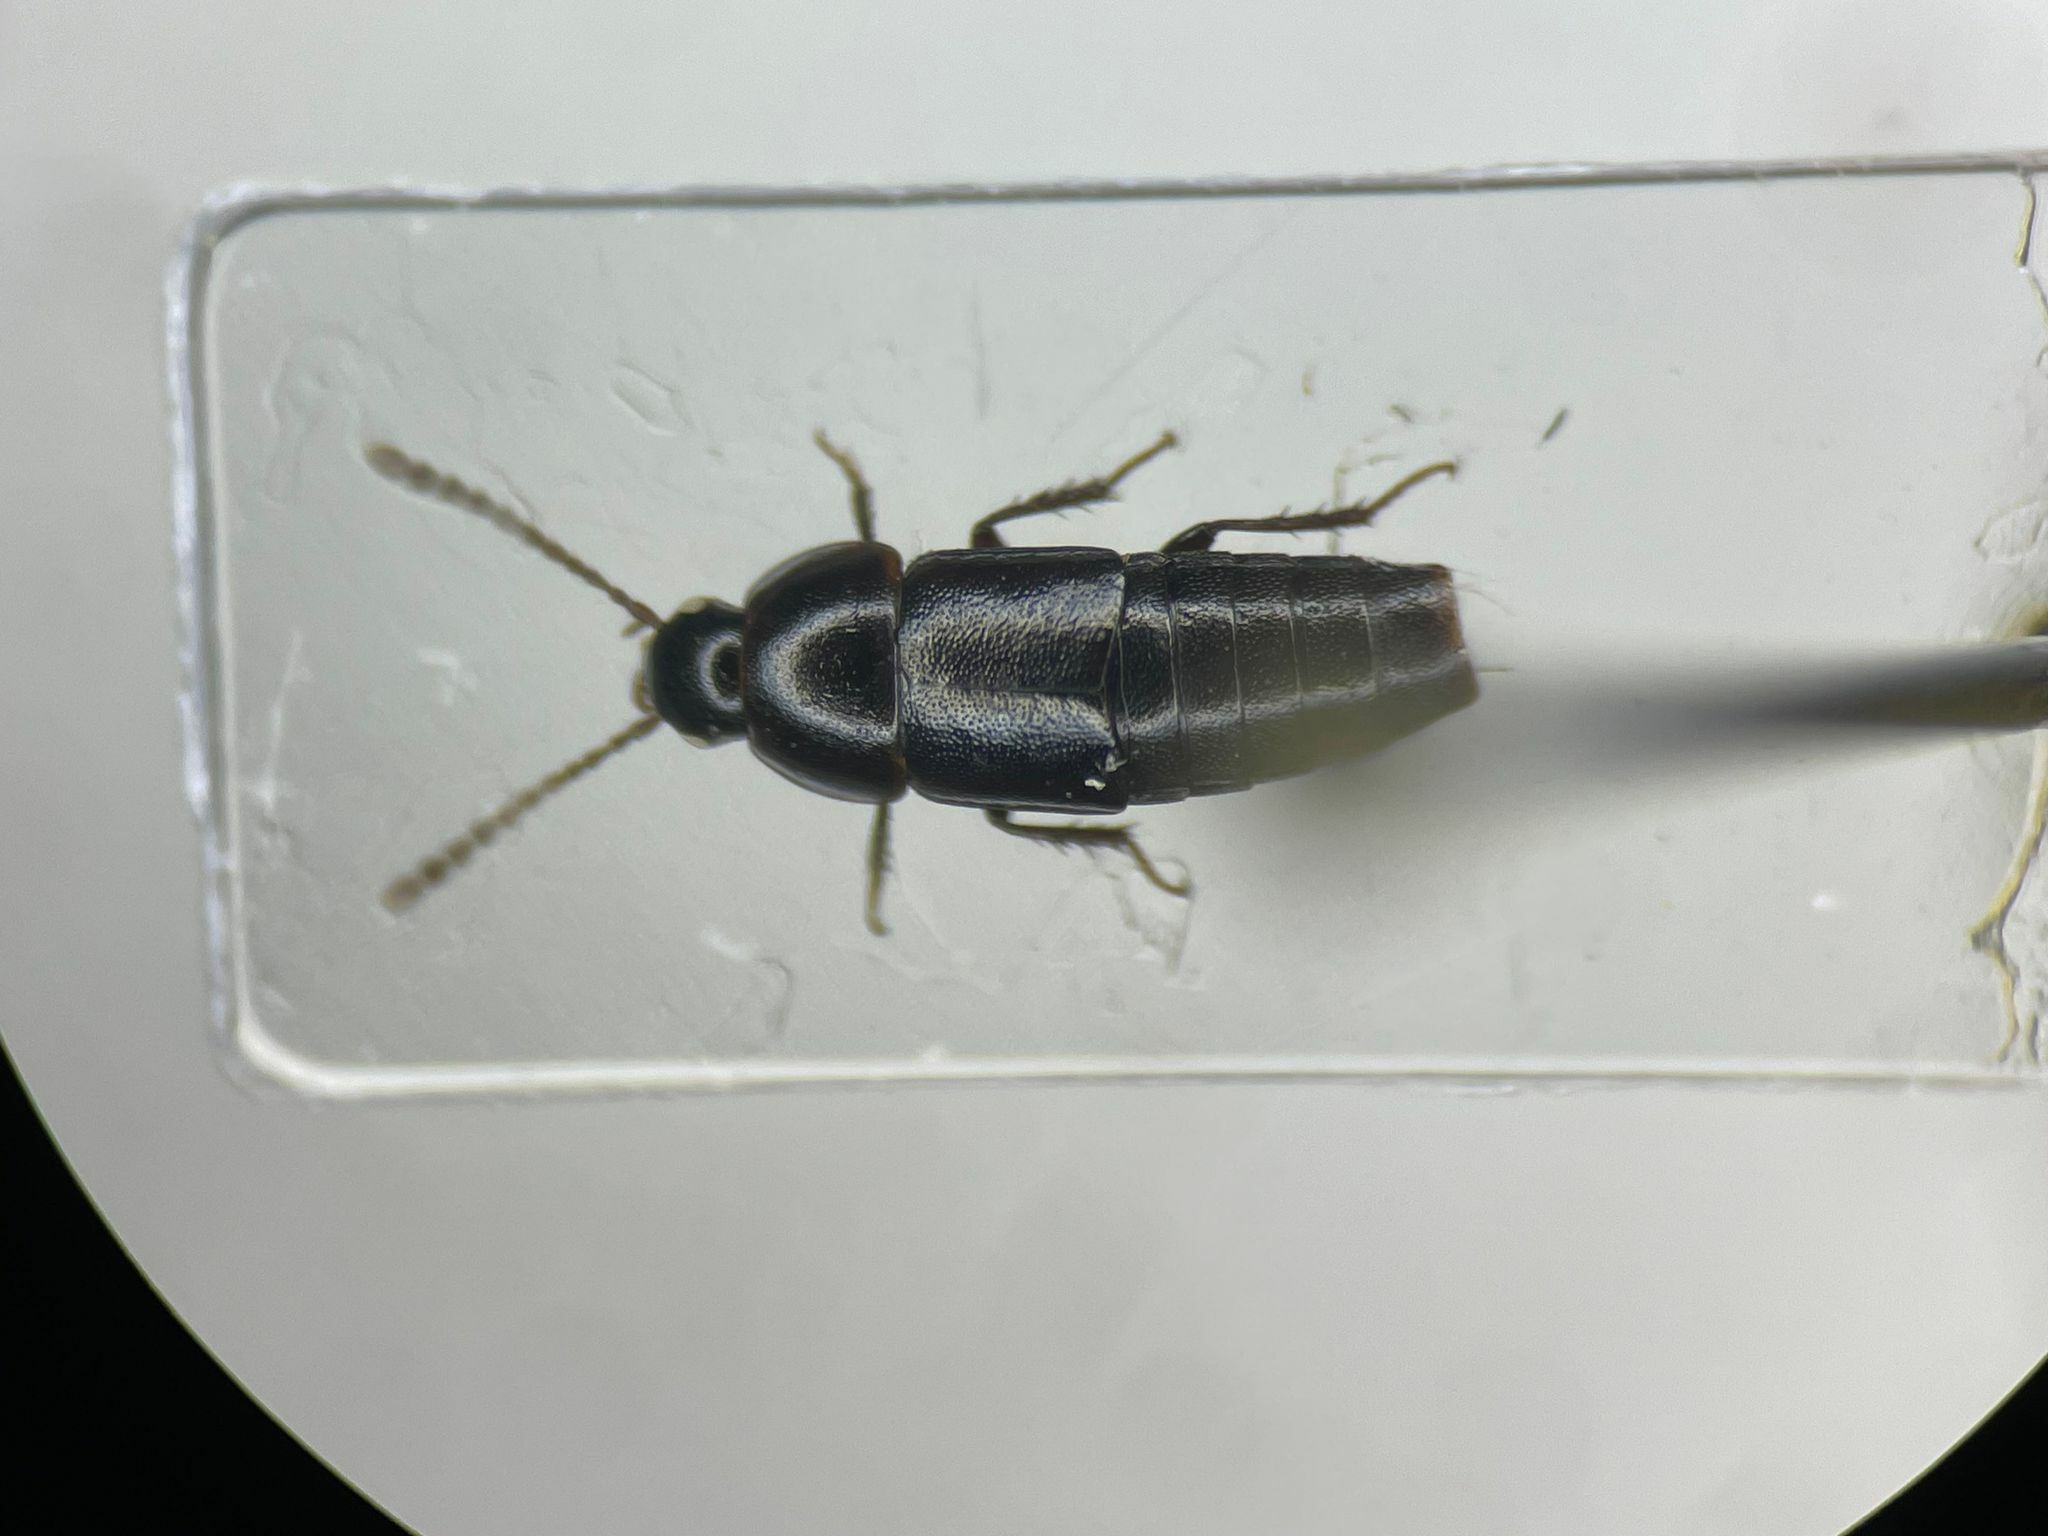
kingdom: Animalia
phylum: Arthropoda
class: Insecta
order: Coleoptera
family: Staphylinidae
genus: Tachinus
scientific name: Tachinus corticinus
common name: Staph beetle
